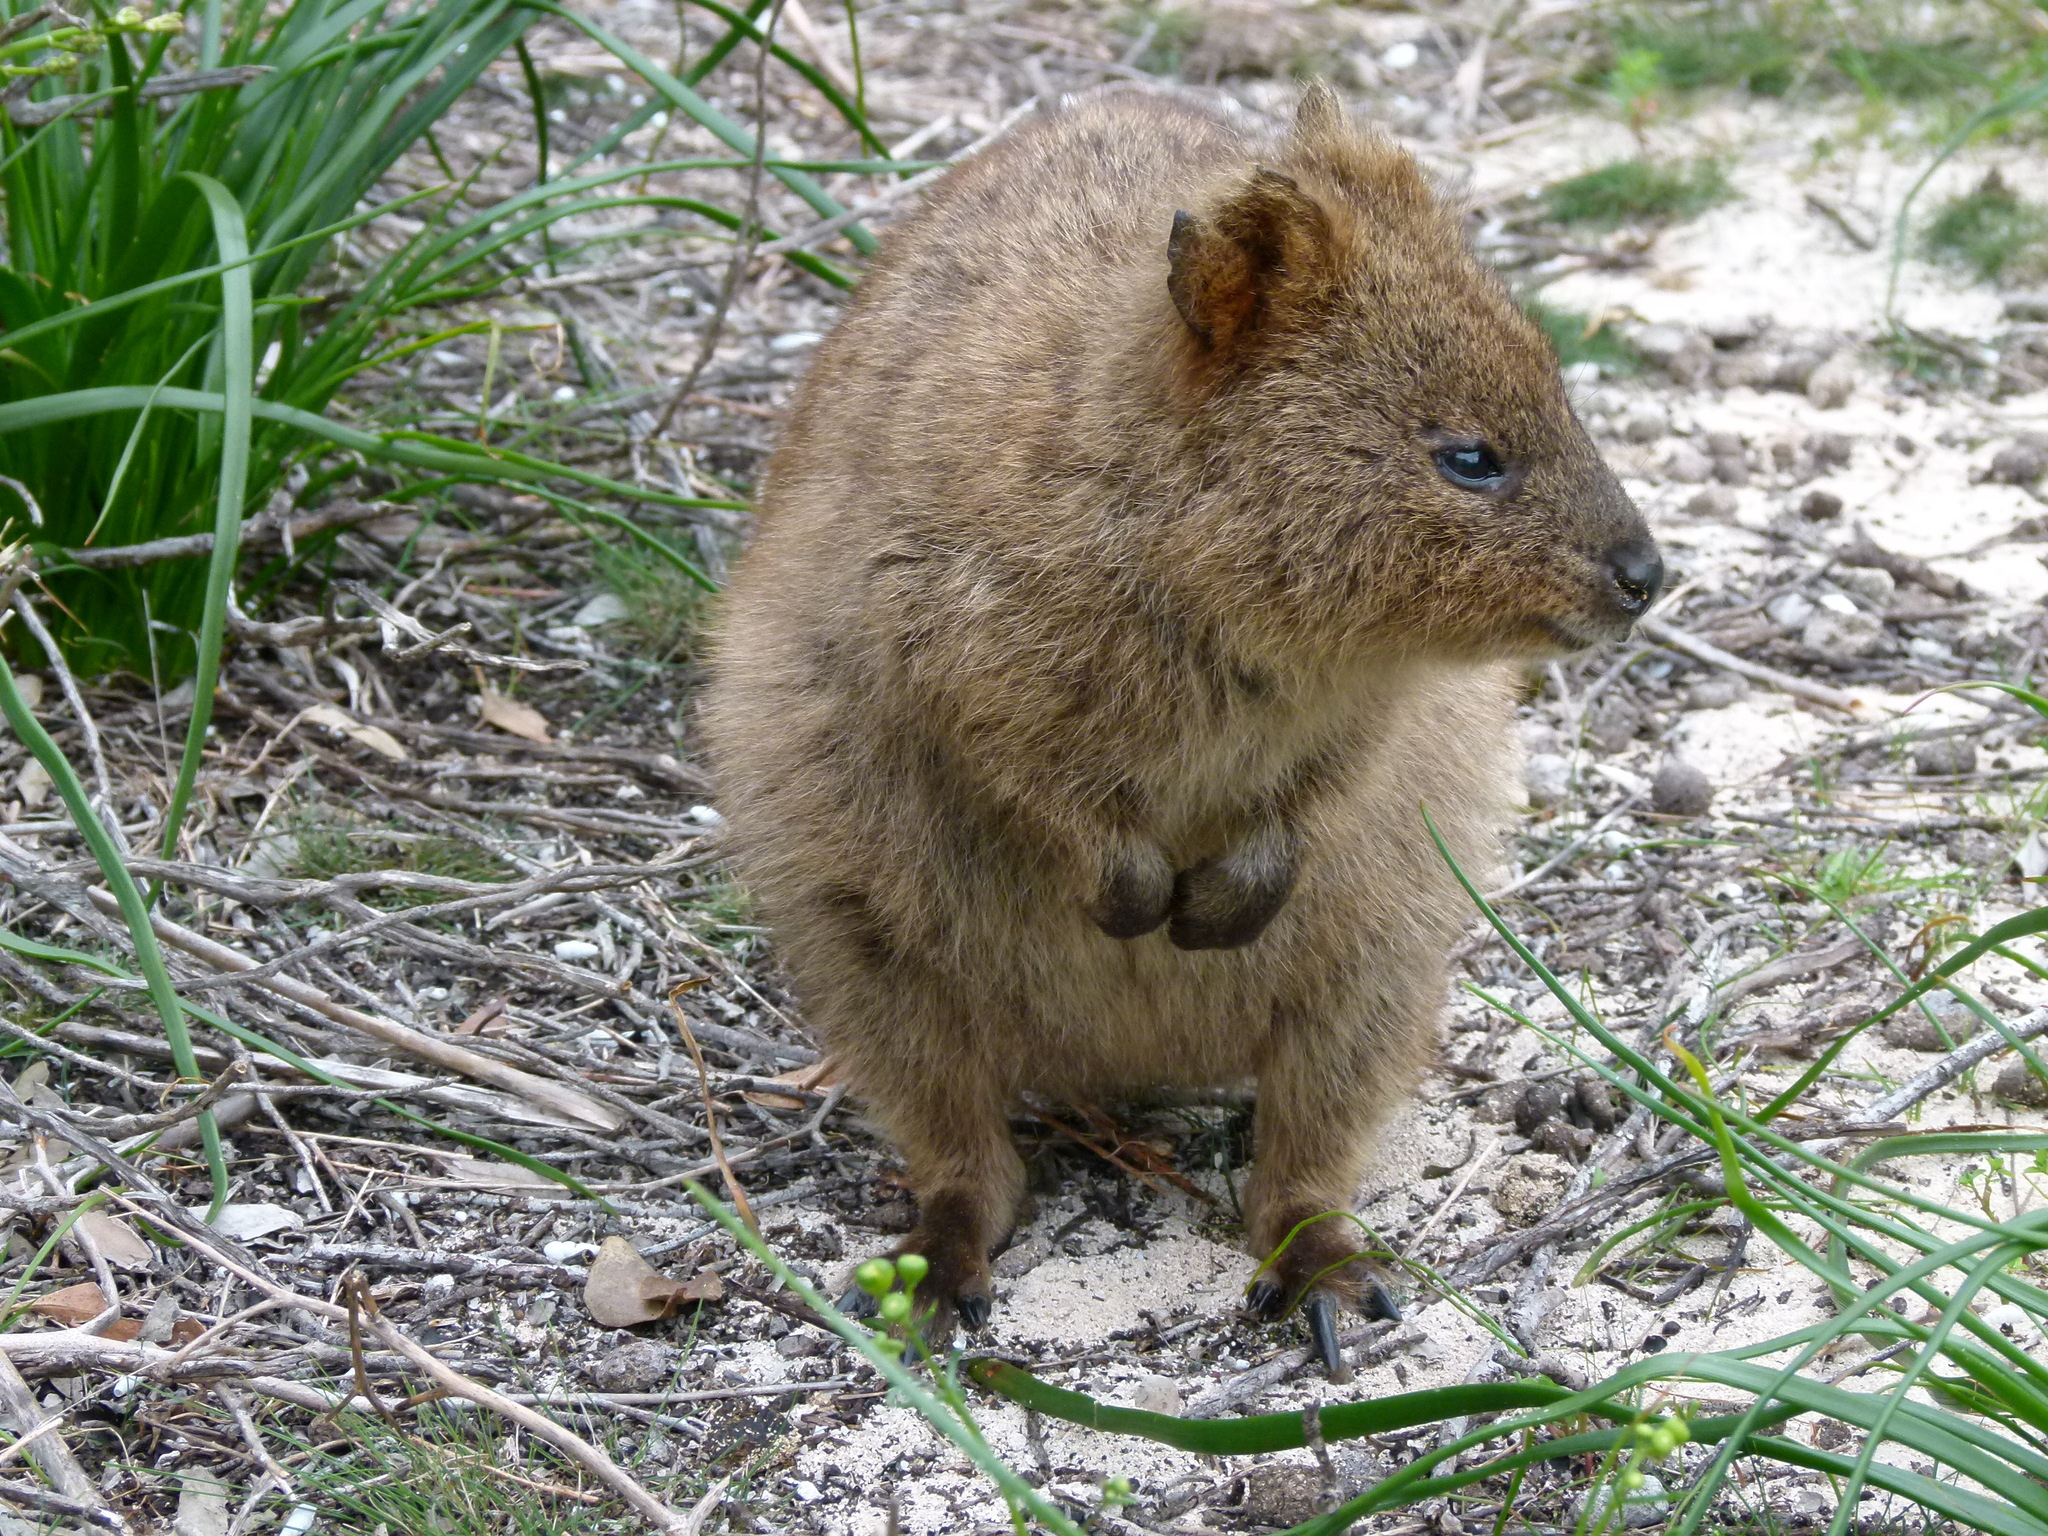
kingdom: Animalia
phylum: Chordata
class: Mammalia
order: Diprotodontia
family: Macropodidae
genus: Setonix
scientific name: Setonix brachyurus
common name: Quokka
